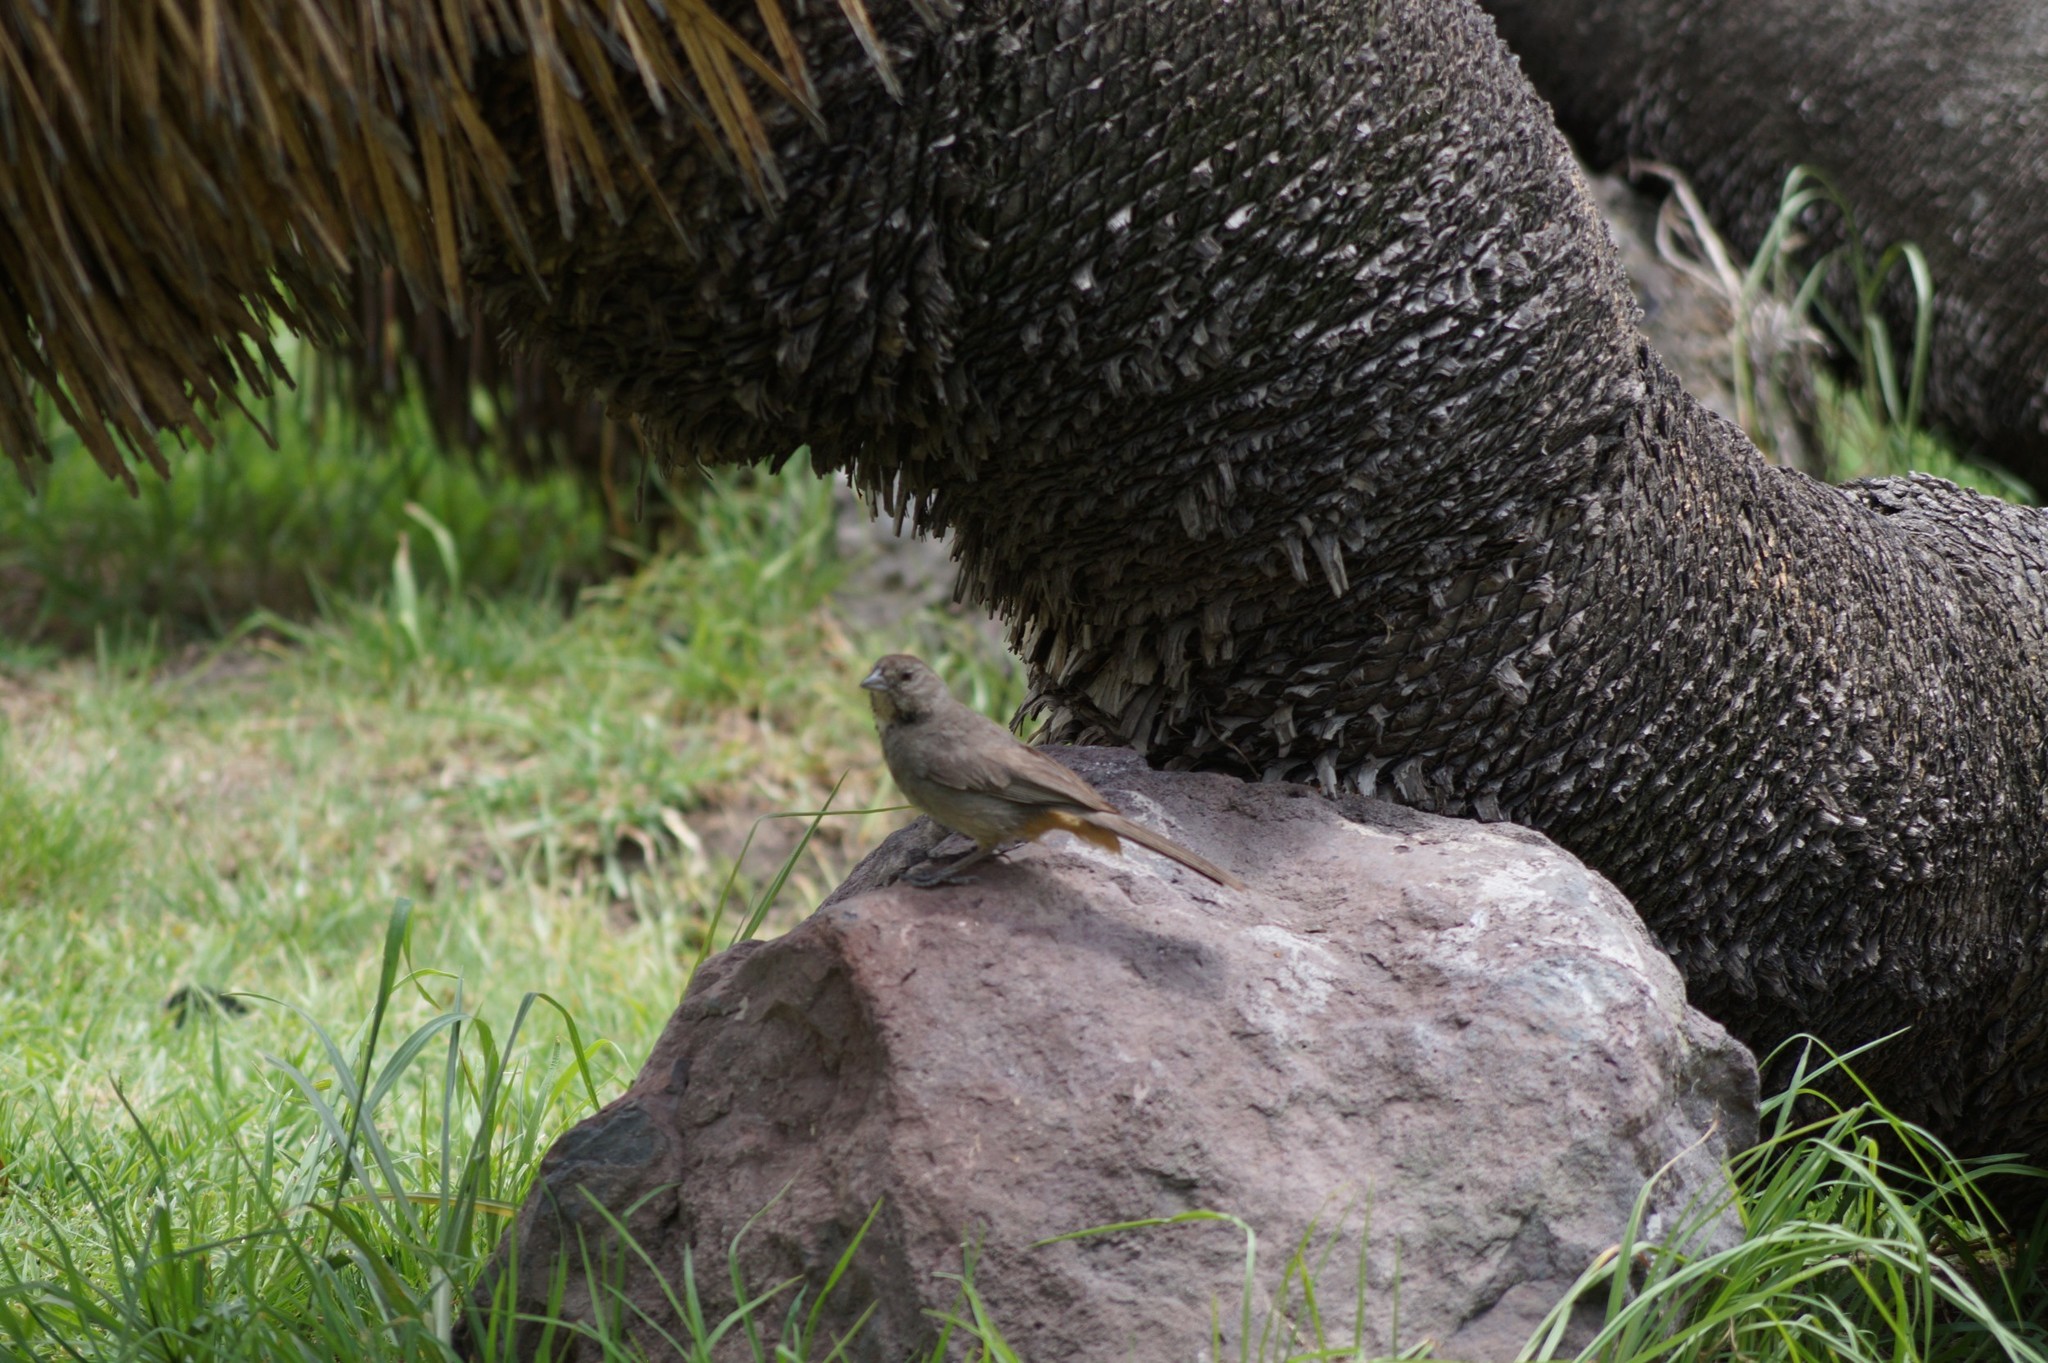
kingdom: Animalia
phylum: Chordata
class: Aves
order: Passeriformes
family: Passerellidae
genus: Melozone
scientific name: Melozone fusca
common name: Canyon towhee
